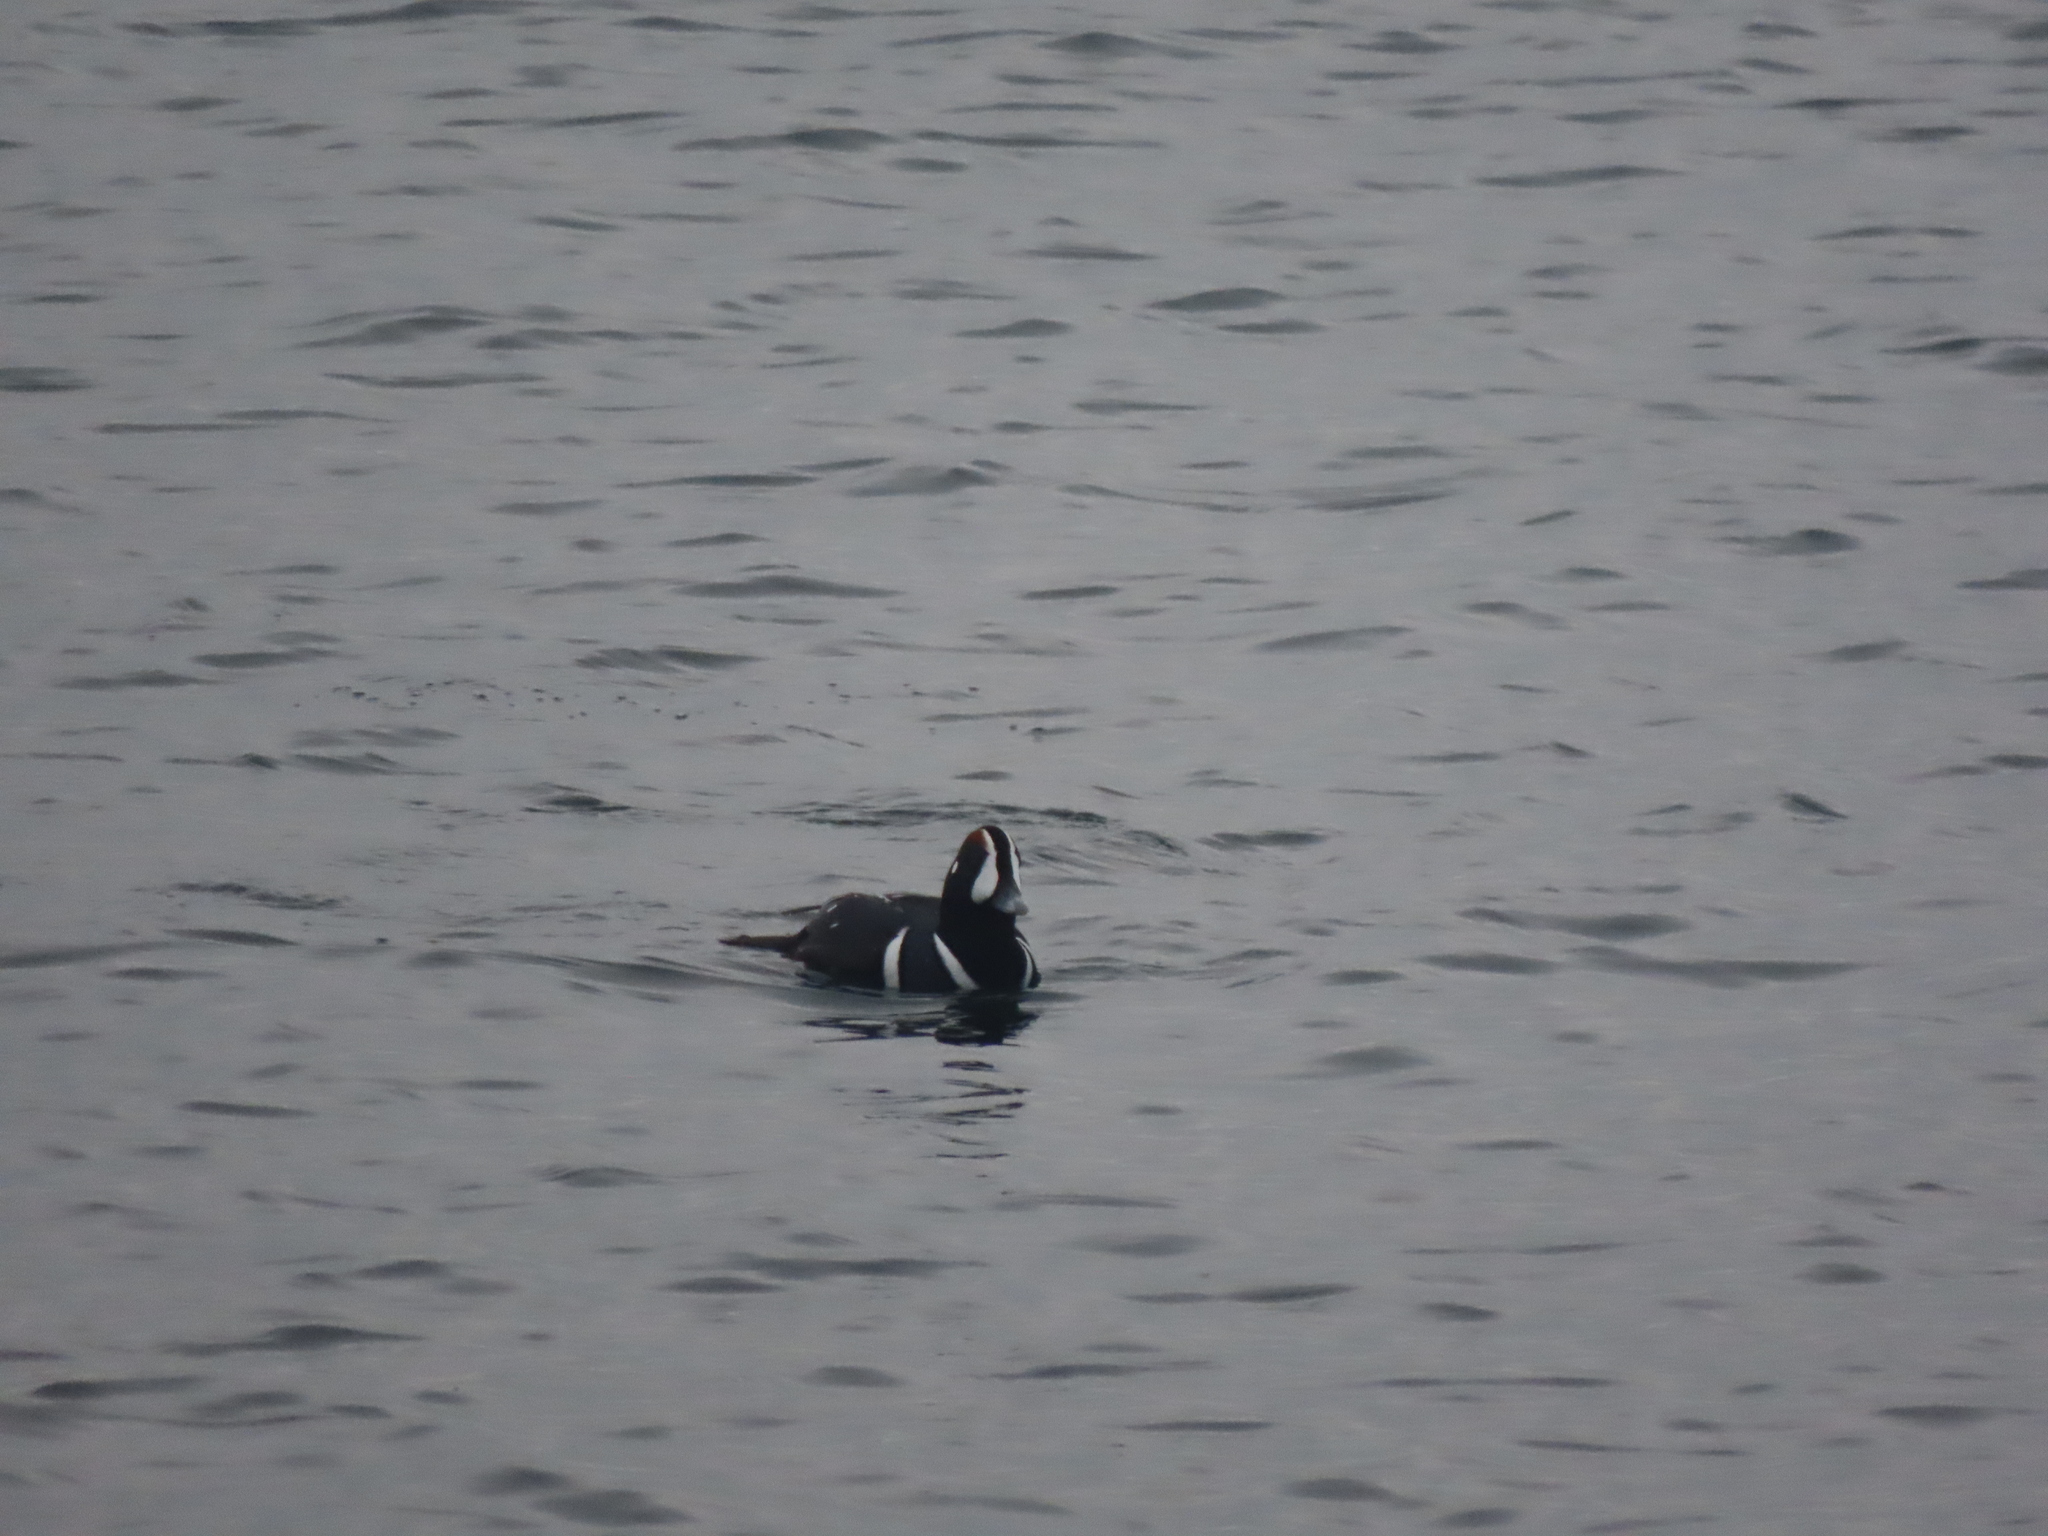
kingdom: Animalia
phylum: Chordata
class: Aves
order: Anseriformes
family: Anatidae
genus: Histrionicus
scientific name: Histrionicus histrionicus
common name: Harlequin duck
